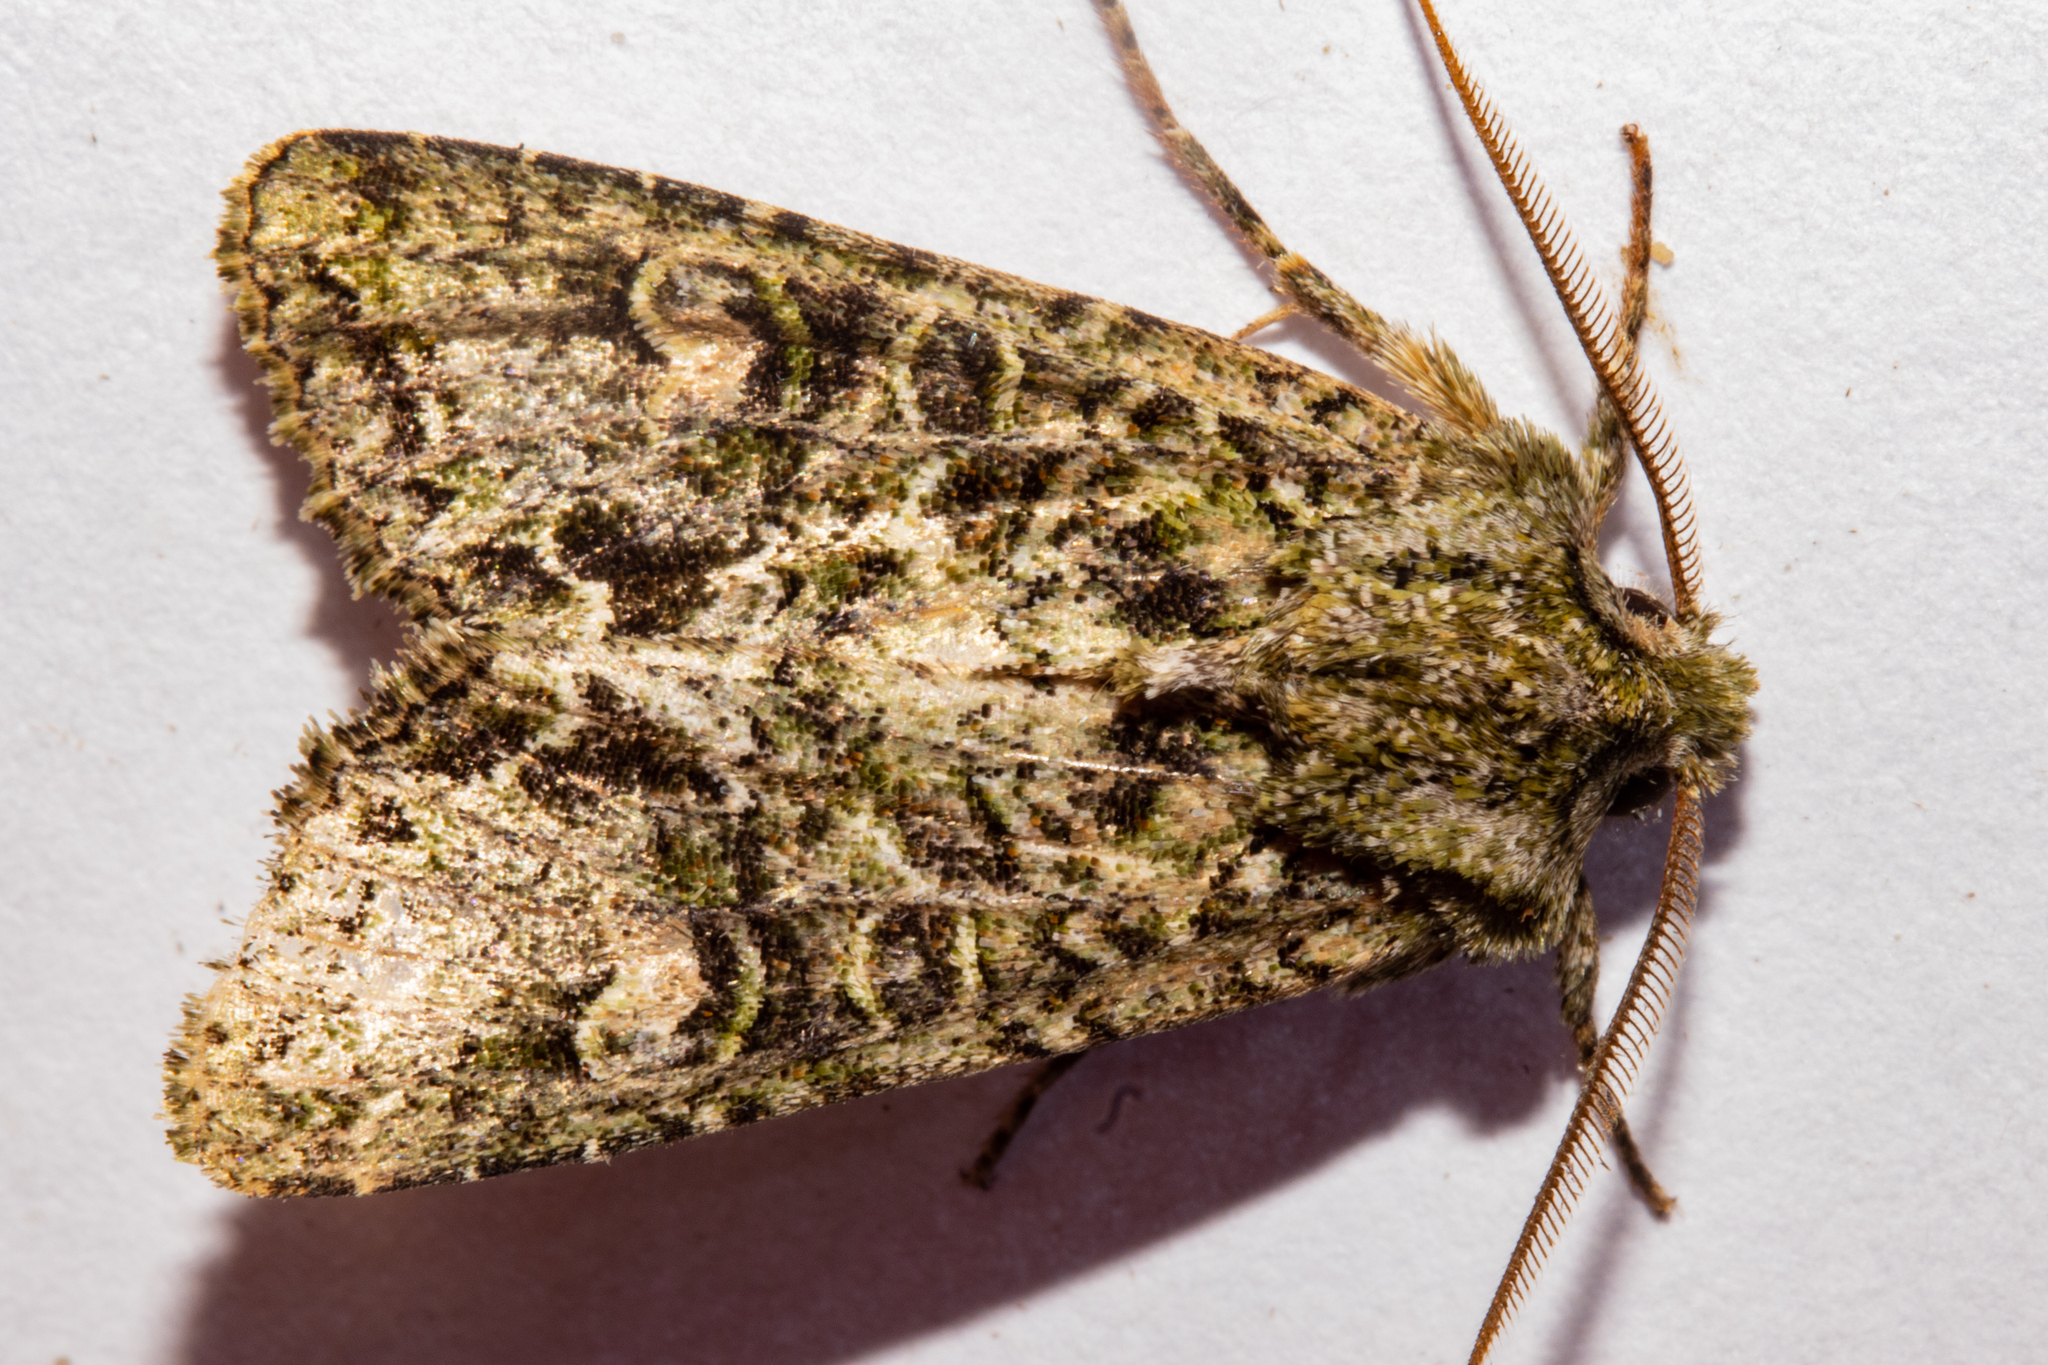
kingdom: Animalia
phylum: Arthropoda
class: Insecta
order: Lepidoptera
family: Noctuidae
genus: Ichneutica
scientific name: Ichneutica
